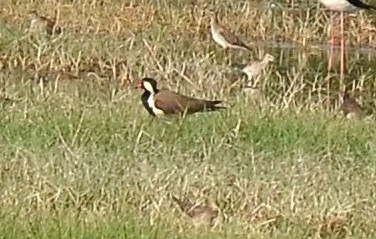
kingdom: Animalia
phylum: Chordata
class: Aves
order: Charadriiformes
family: Charadriidae
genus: Vanellus
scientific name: Vanellus indicus
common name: Red-wattled lapwing
